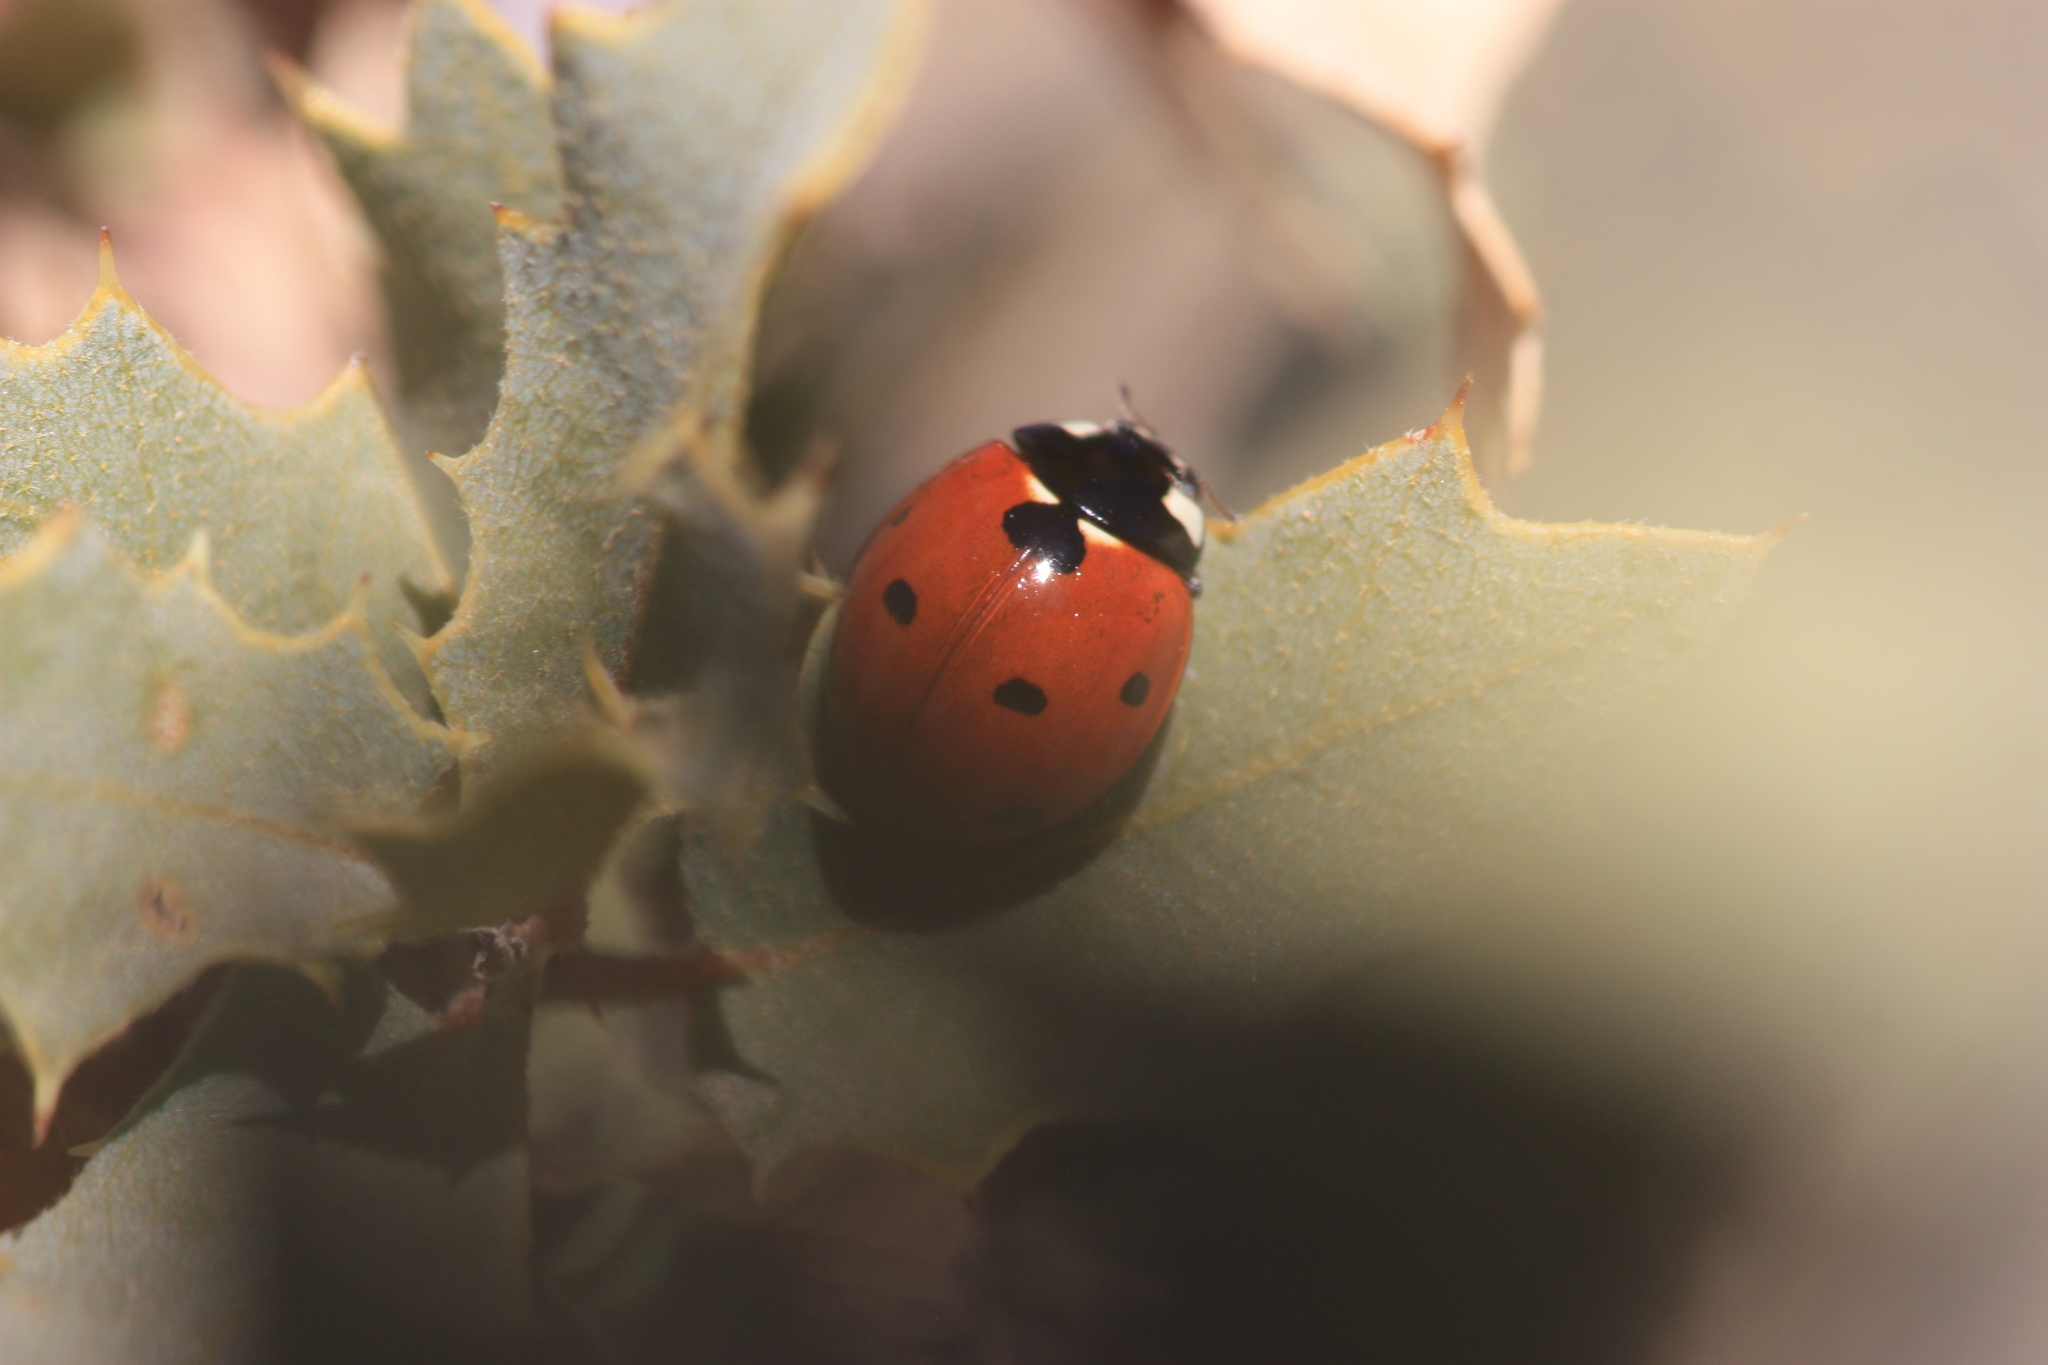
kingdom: Animalia
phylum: Arthropoda
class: Insecta
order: Coleoptera
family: Coccinellidae
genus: Coccinella
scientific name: Coccinella septempunctata
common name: Sevenspotted lady beetle
